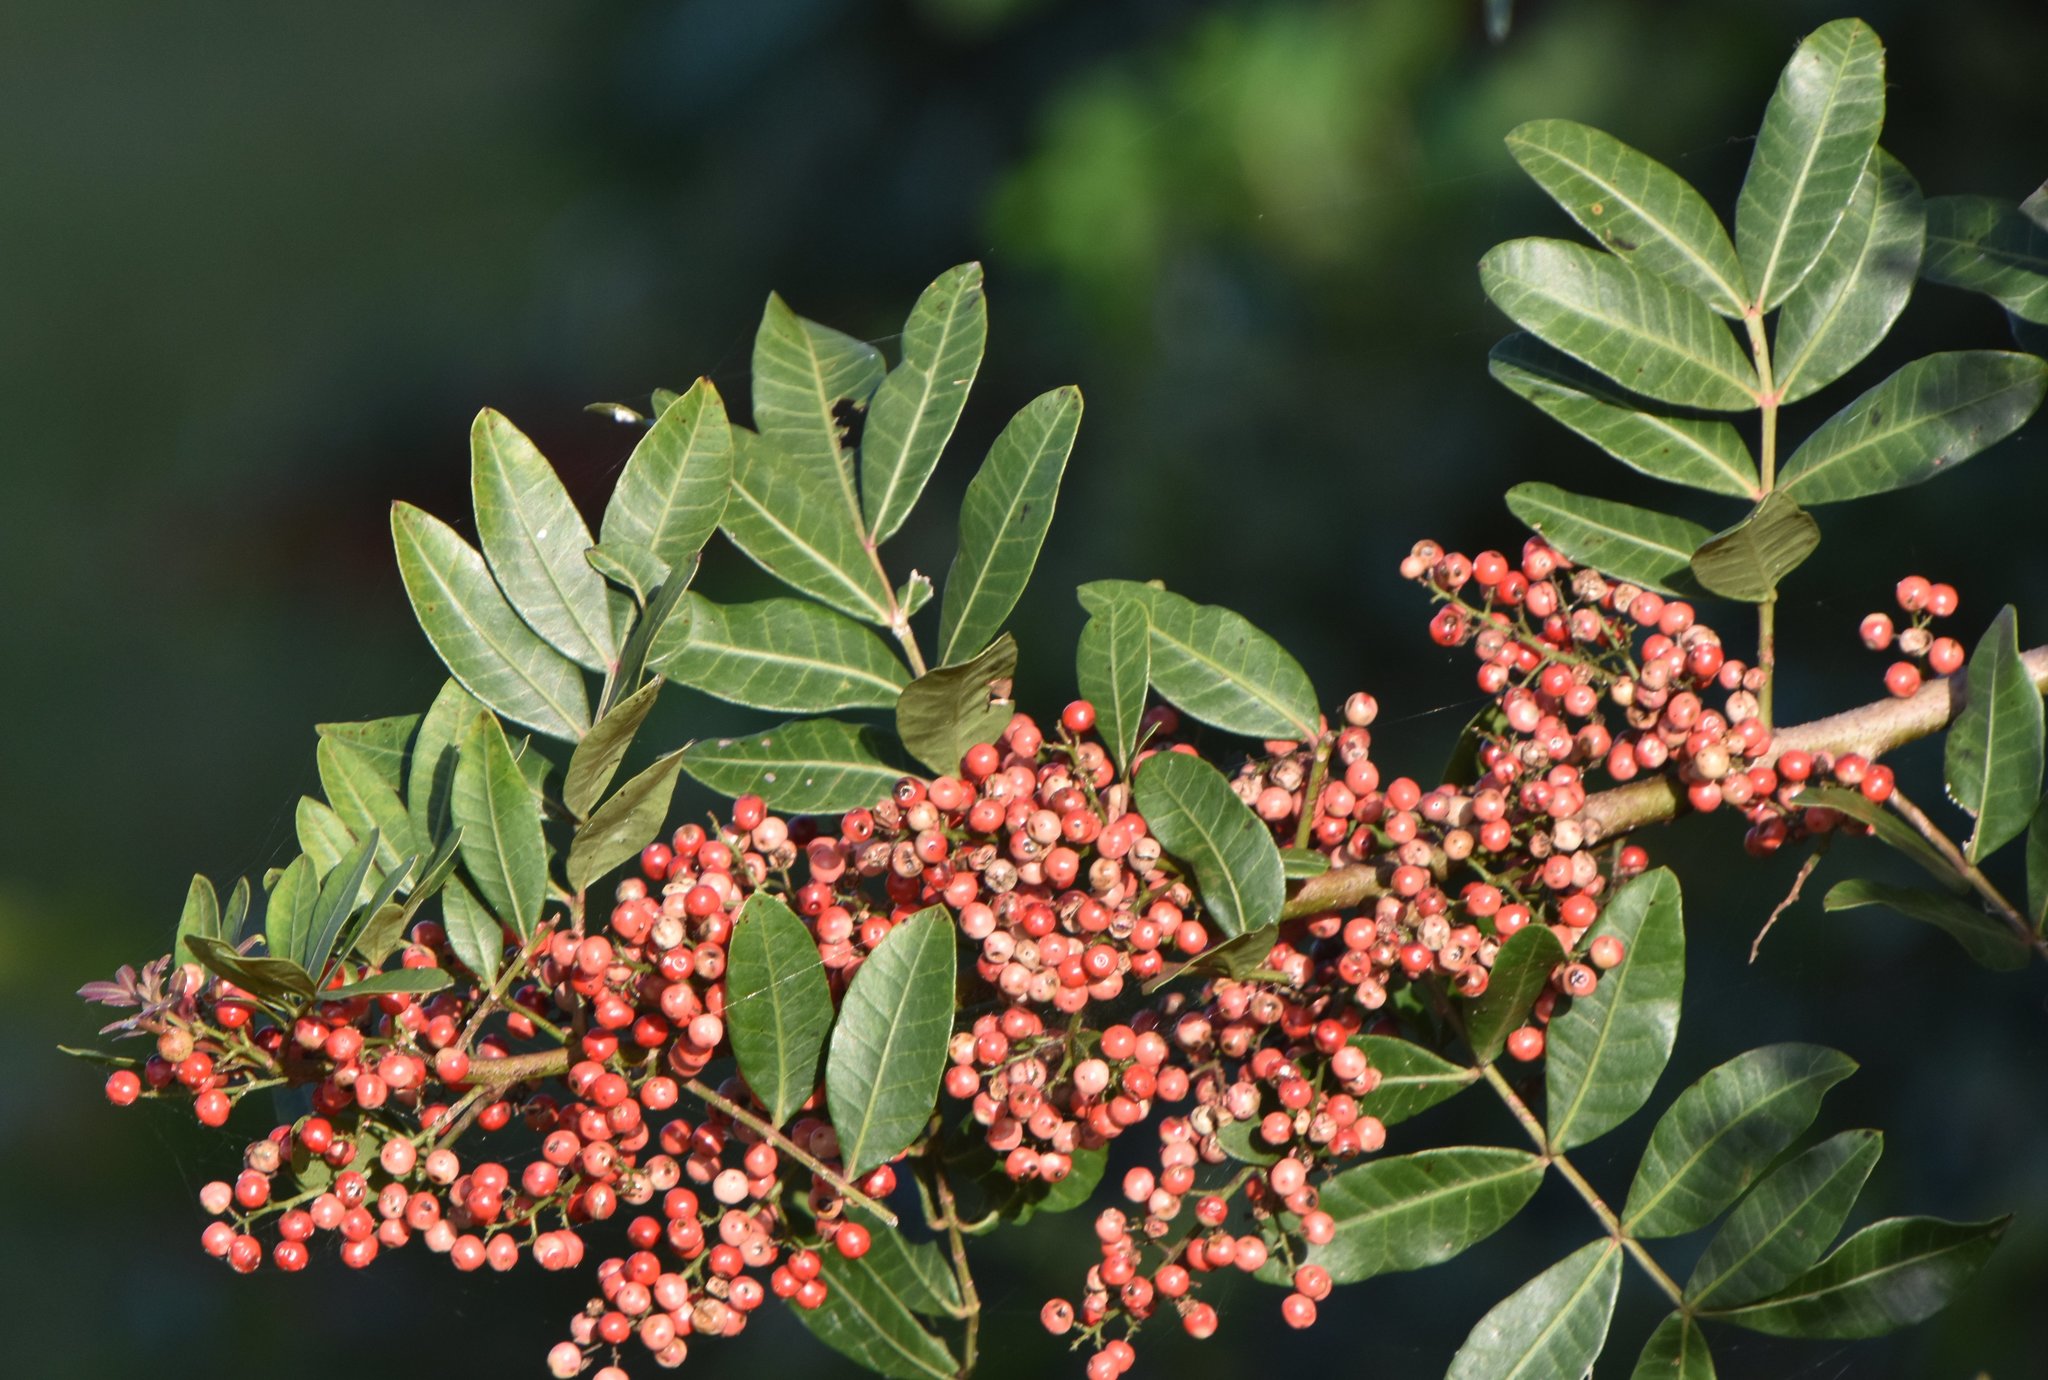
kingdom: Plantae
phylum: Tracheophyta
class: Magnoliopsida
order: Sapindales
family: Anacardiaceae
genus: Schinus
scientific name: Schinus terebinthifolia
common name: Brazilian peppertree
